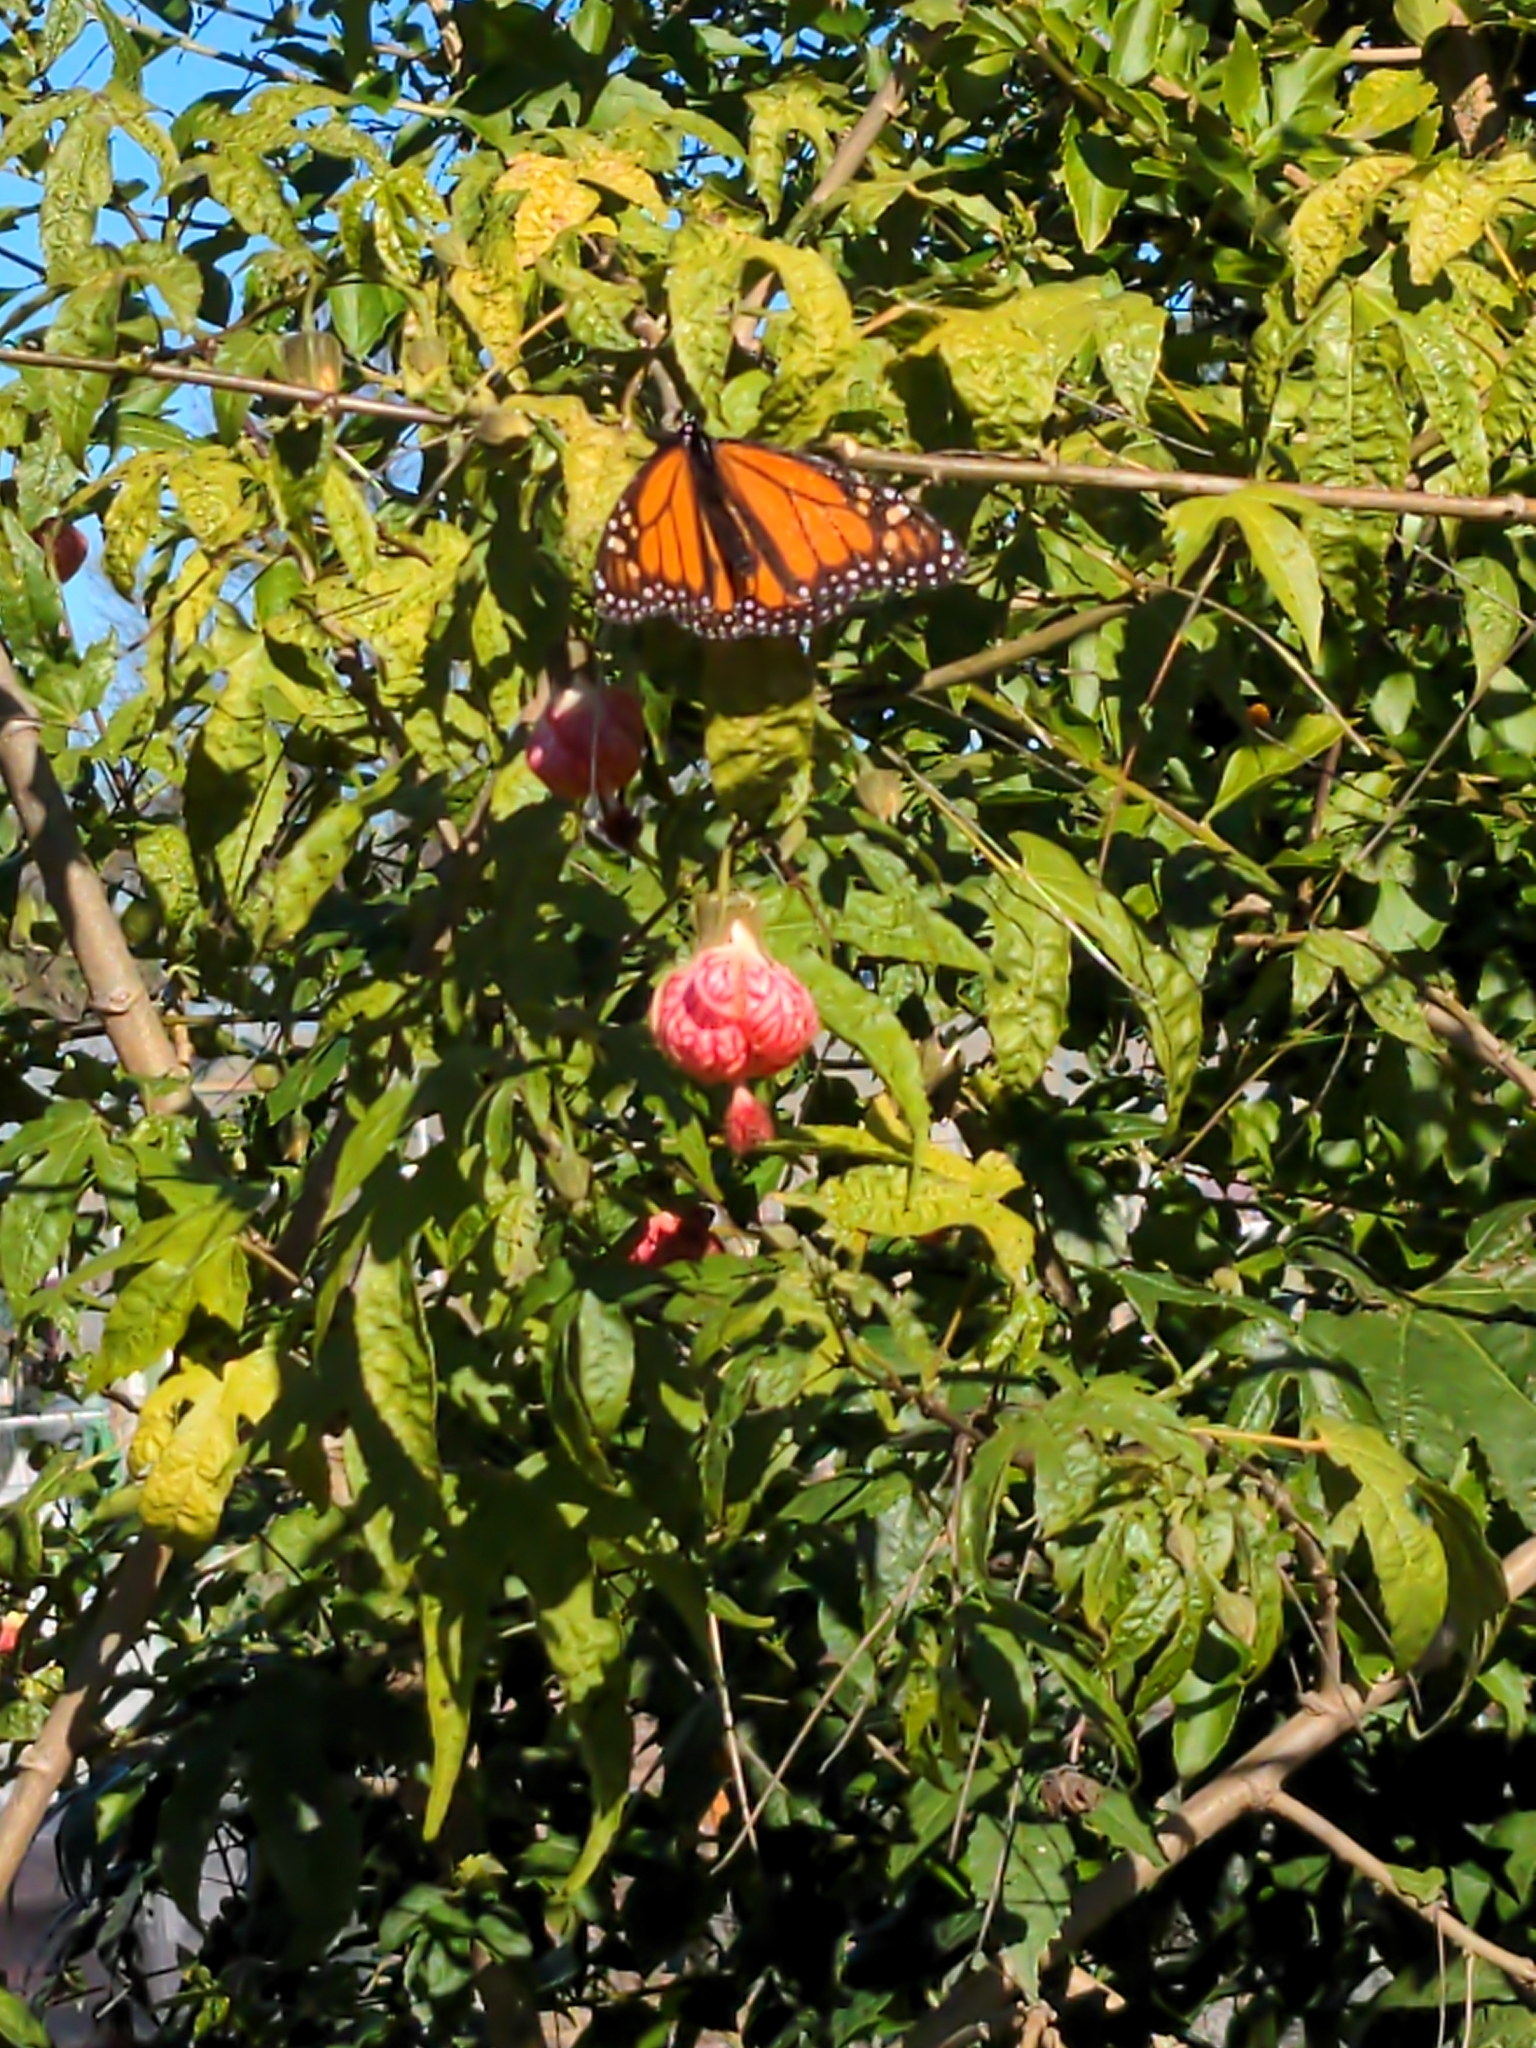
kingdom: Animalia
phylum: Arthropoda
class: Insecta
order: Lepidoptera
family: Nymphalidae
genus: Danaus
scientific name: Danaus plexippus
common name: Monarch
